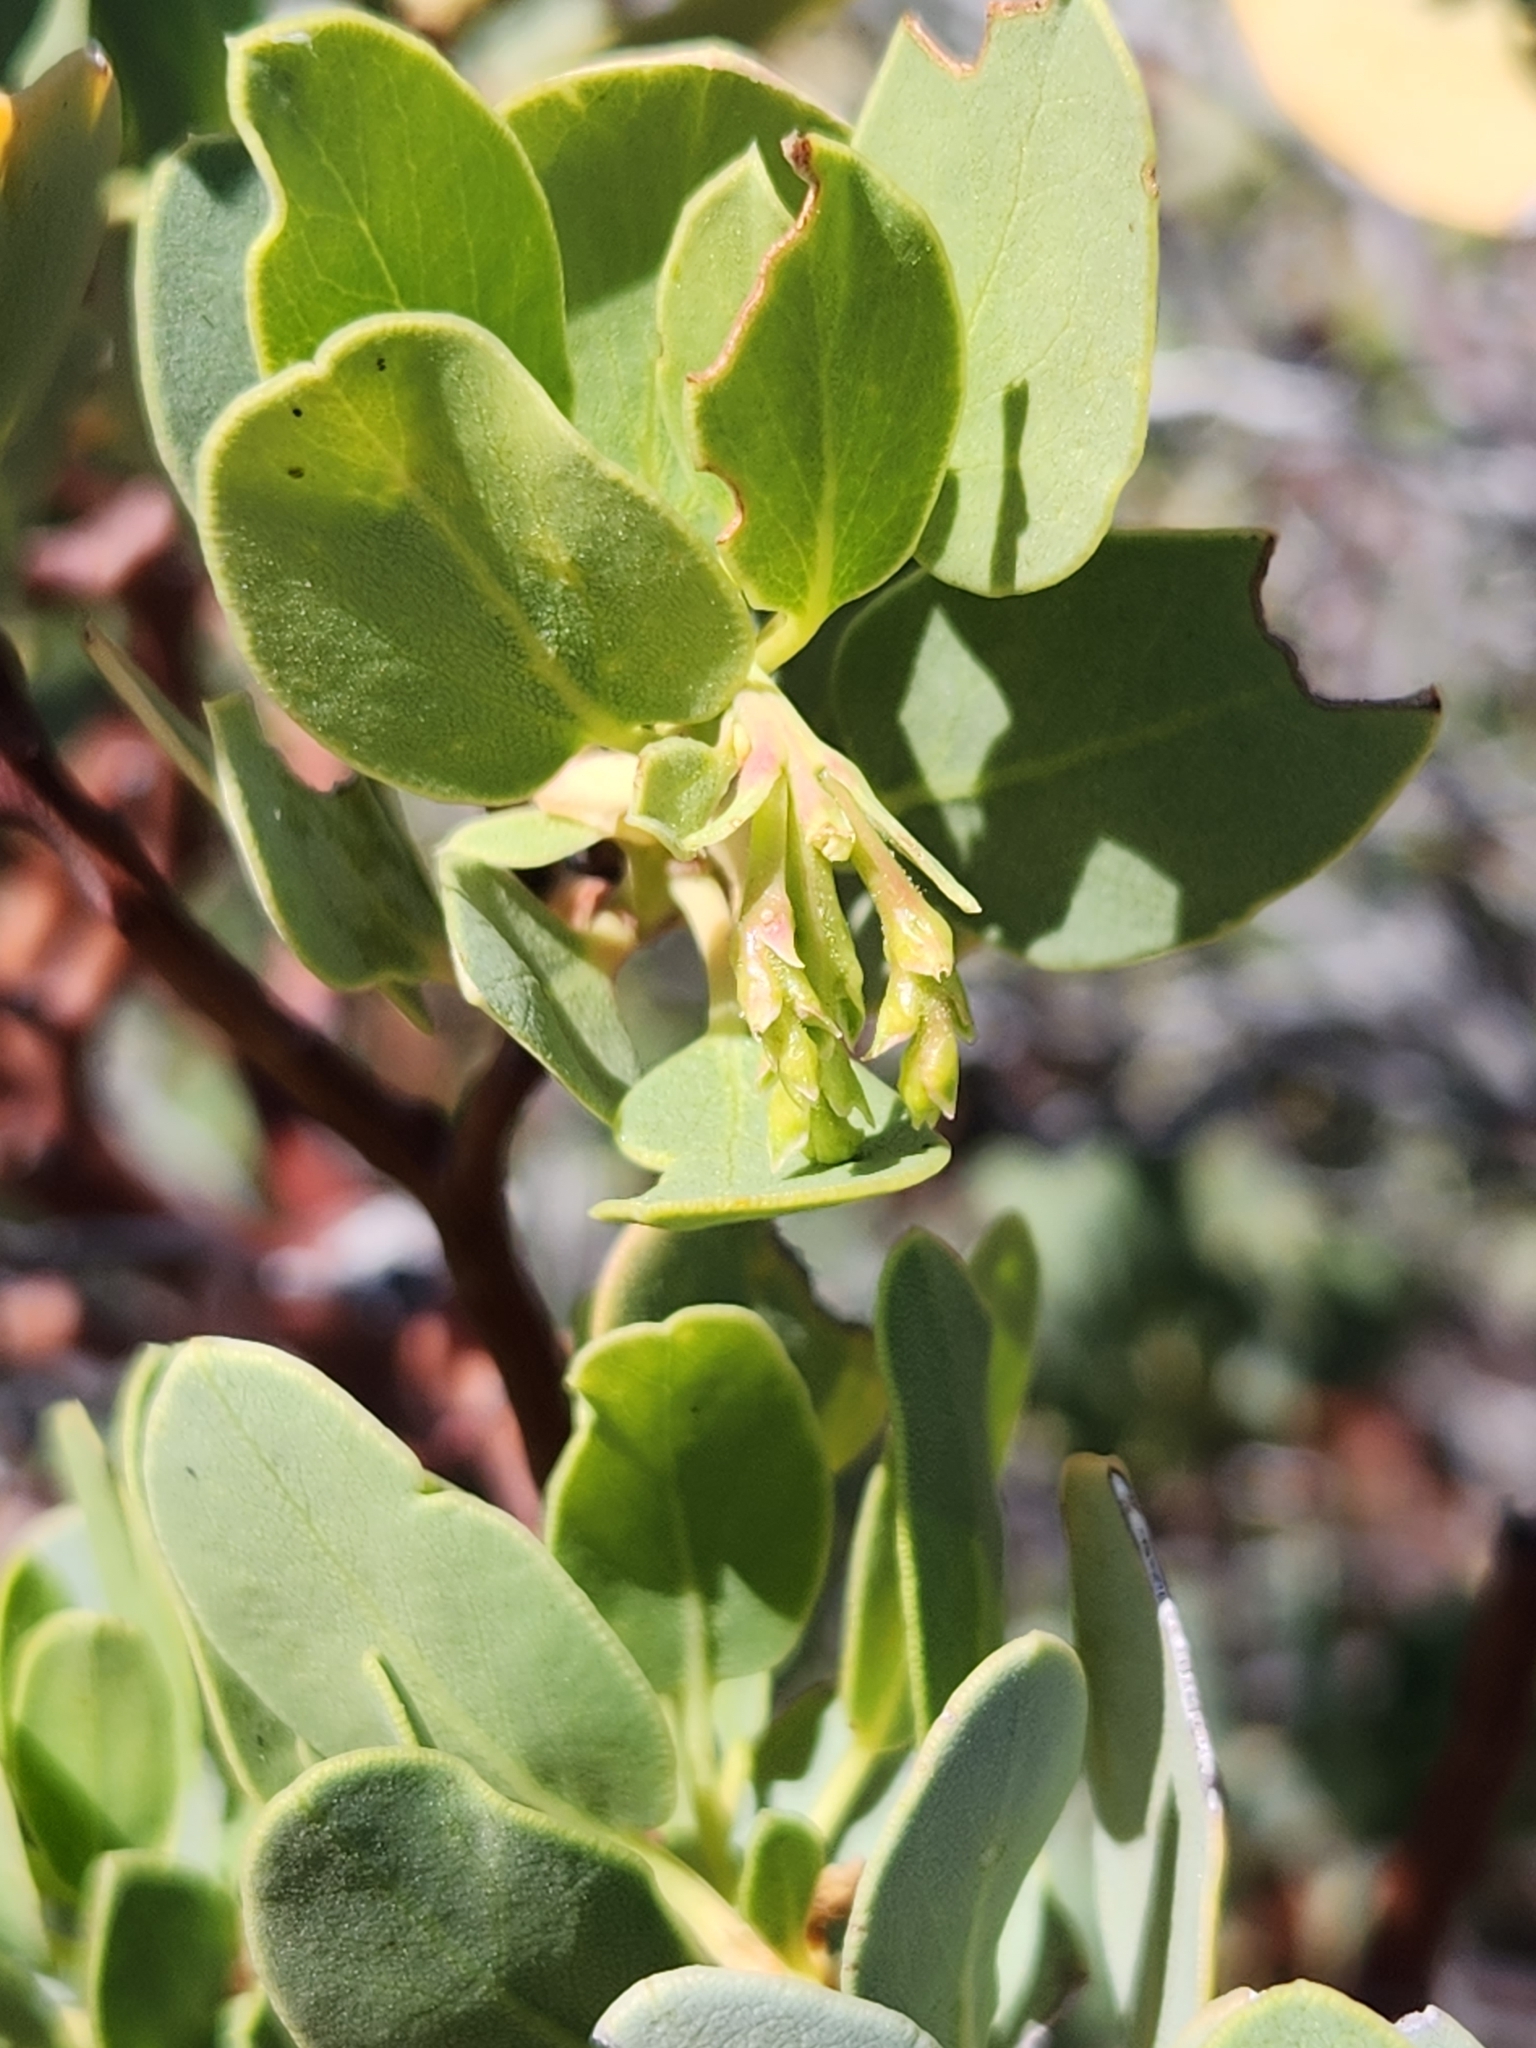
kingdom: Plantae
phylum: Tracheophyta
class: Magnoliopsida
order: Ericales
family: Ericaceae
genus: Arctostaphylos
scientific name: Arctostaphylos glauca
